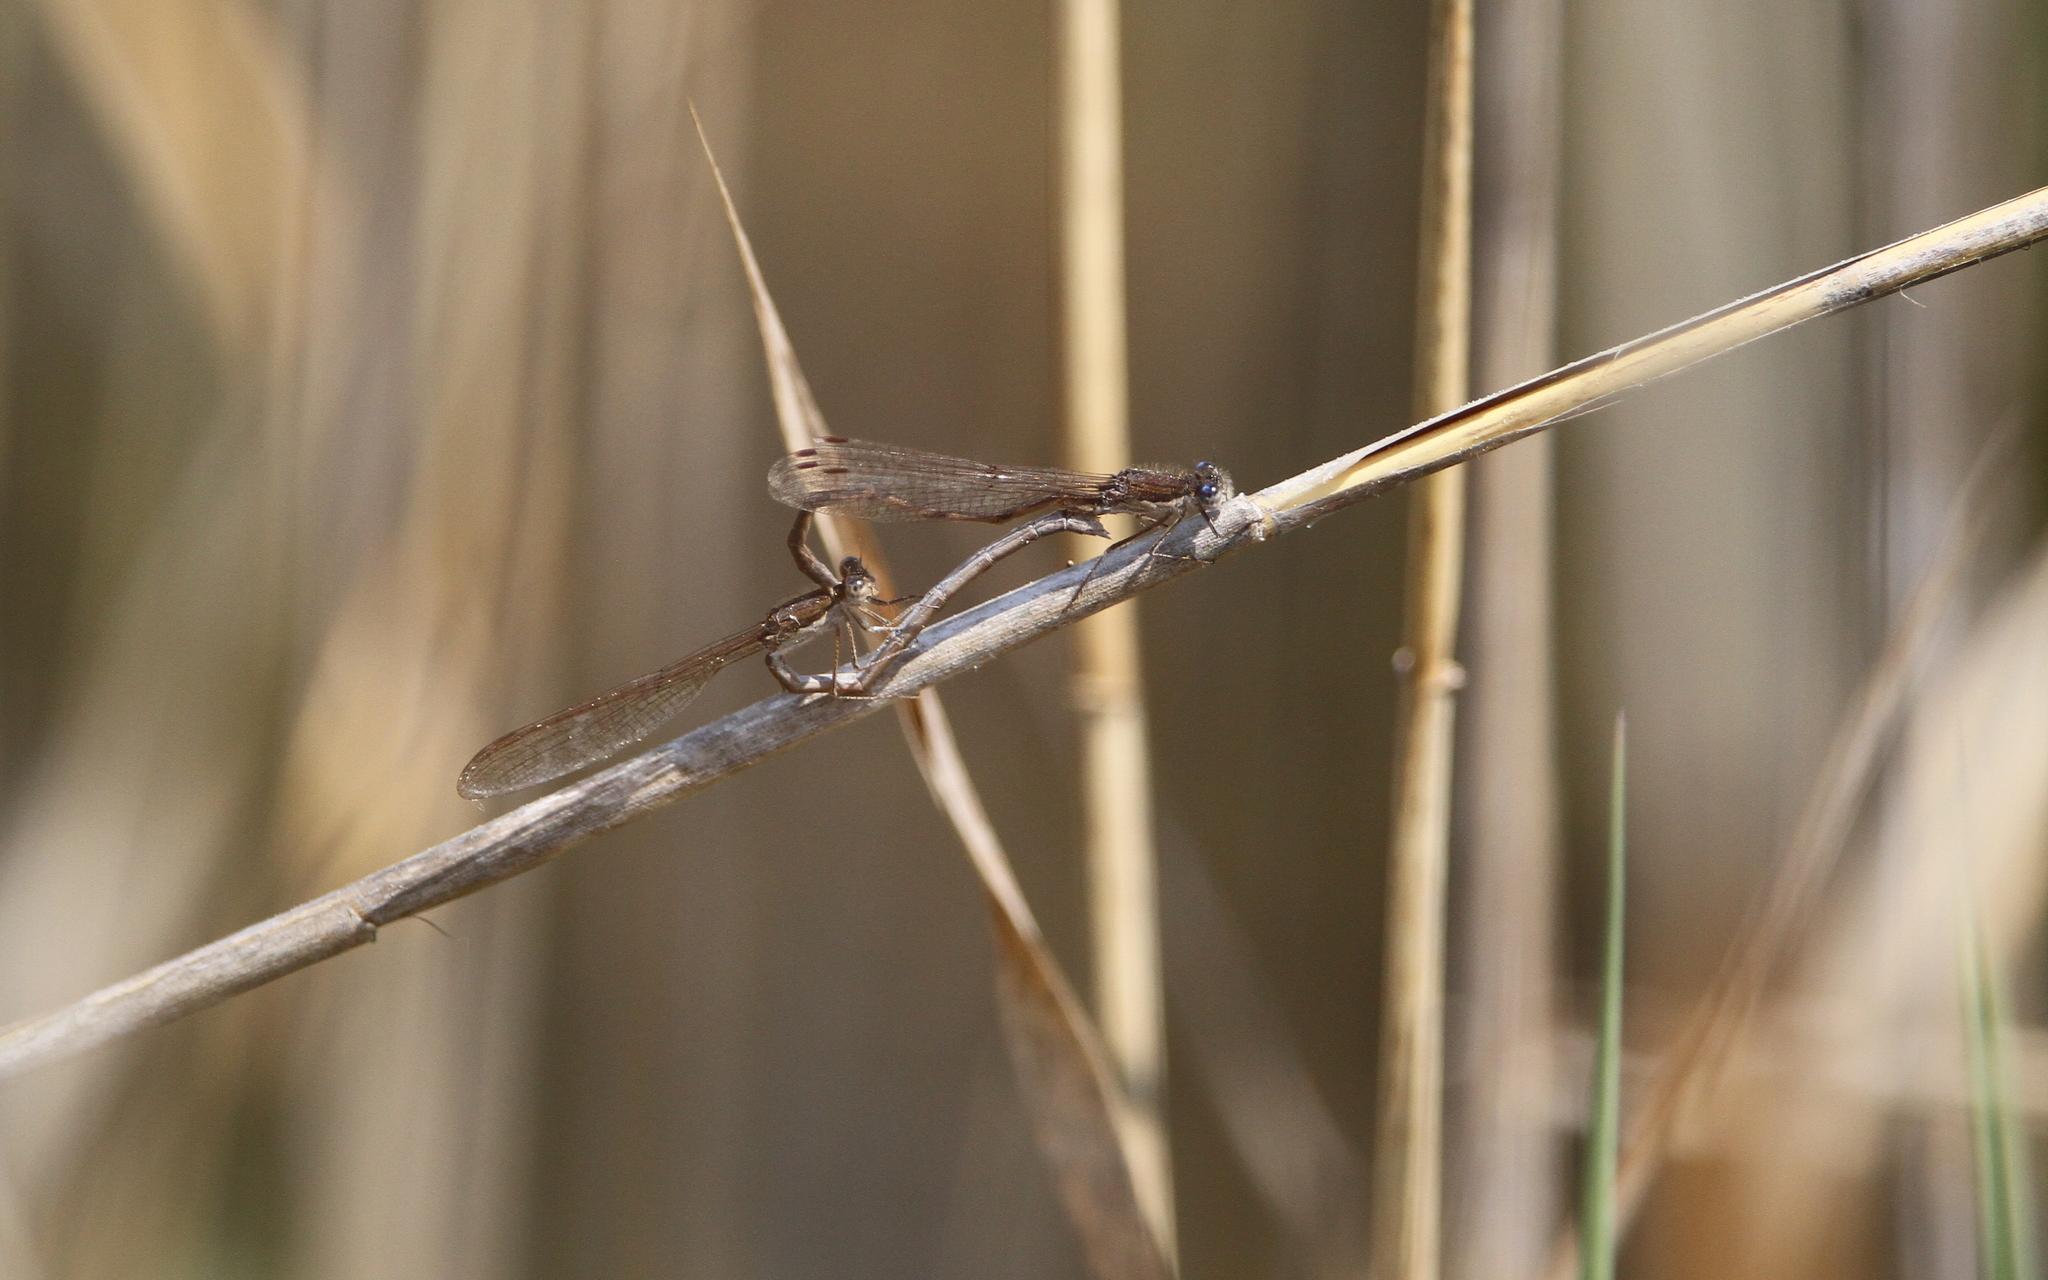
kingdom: Animalia
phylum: Arthropoda
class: Insecta
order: Odonata
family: Lestidae
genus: Sympecma
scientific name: Sympecma fusca
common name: Common winter damsel
